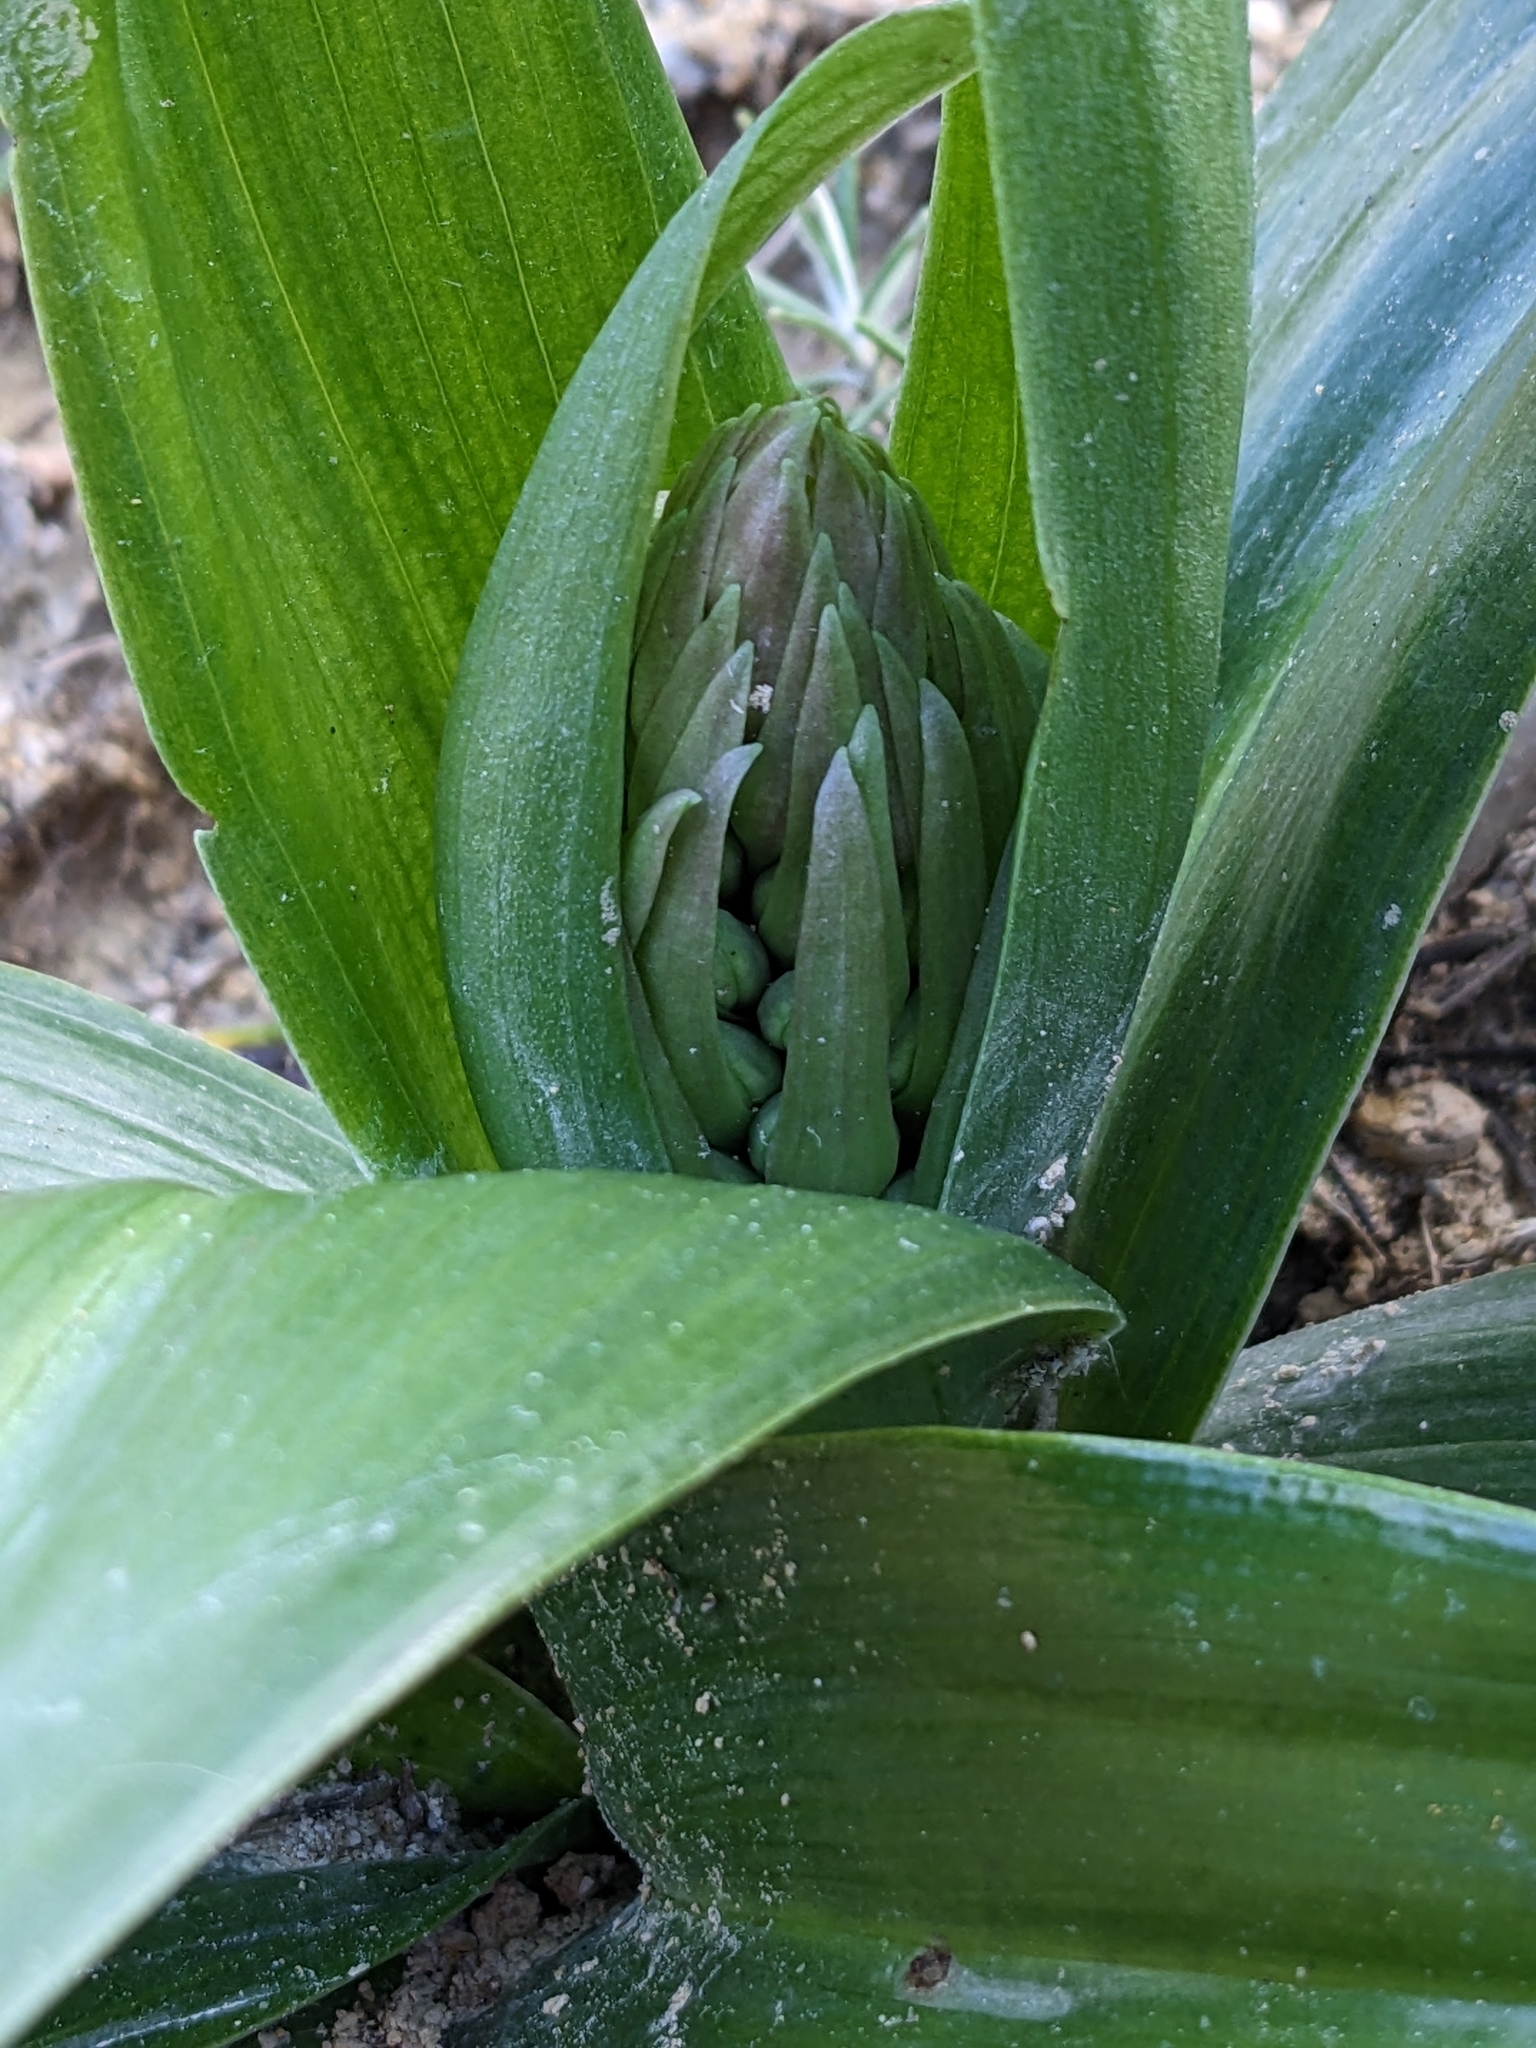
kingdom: Plantae
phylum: Tracheophyta
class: Liliopsida
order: Asparagales
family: Orchidaceae
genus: Himantoglossum
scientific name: Himantoglossum robertianum
